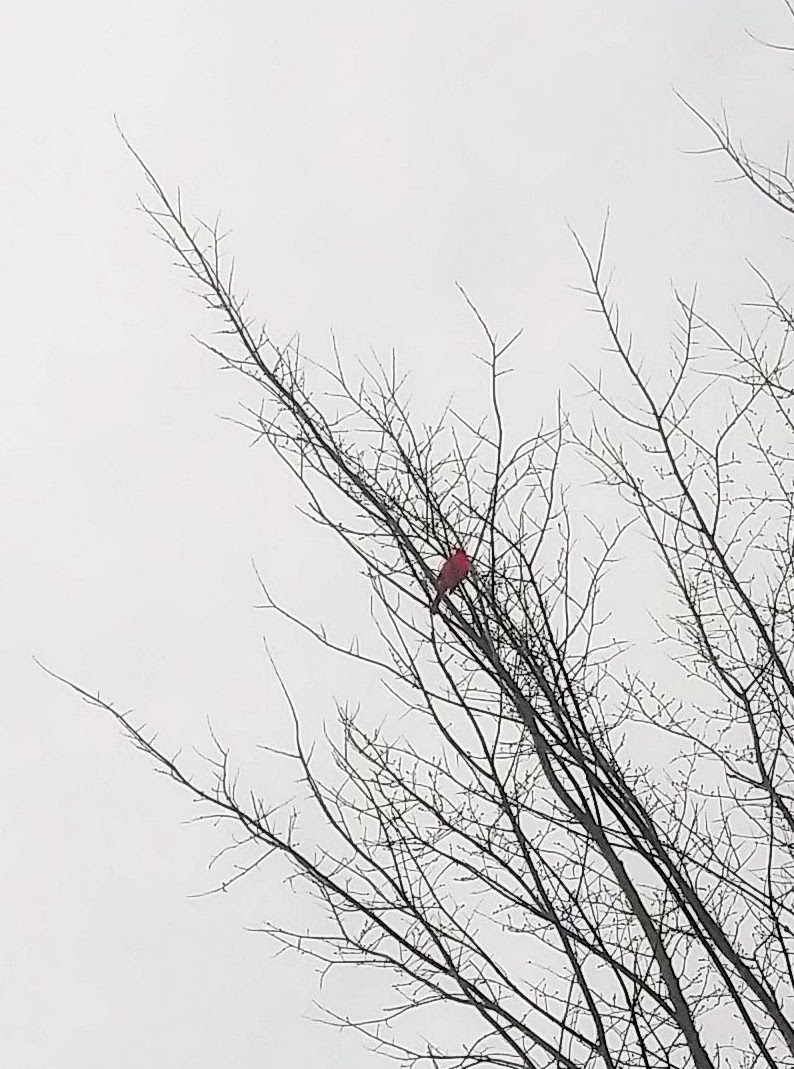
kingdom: Animalia
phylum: Chordata
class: Aves
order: Passeriformes
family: Cardinalidae
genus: Cardinalis
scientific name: Cardinalis cardinalis
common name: Northern cardinal
